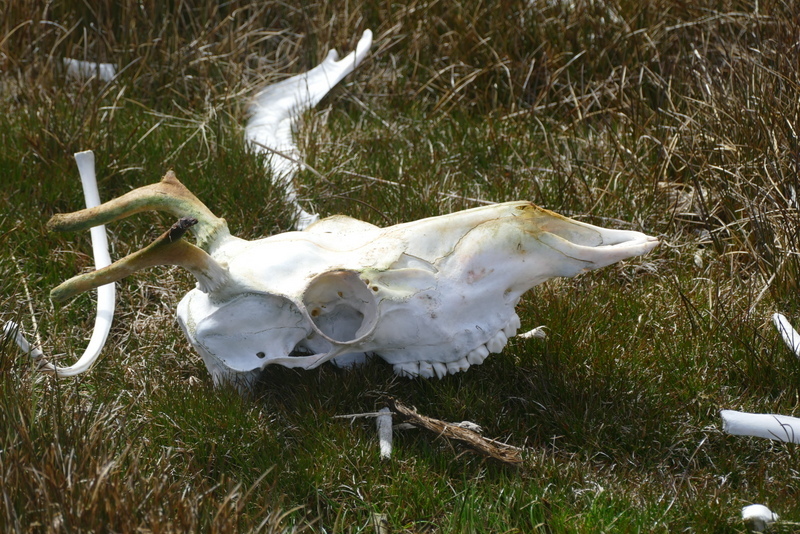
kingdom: Animalia
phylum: Chordata
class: Mammalia
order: Artiodactyla
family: Cervidae
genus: Rangifer
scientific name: Rangifer tarandus
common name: Reindeer
